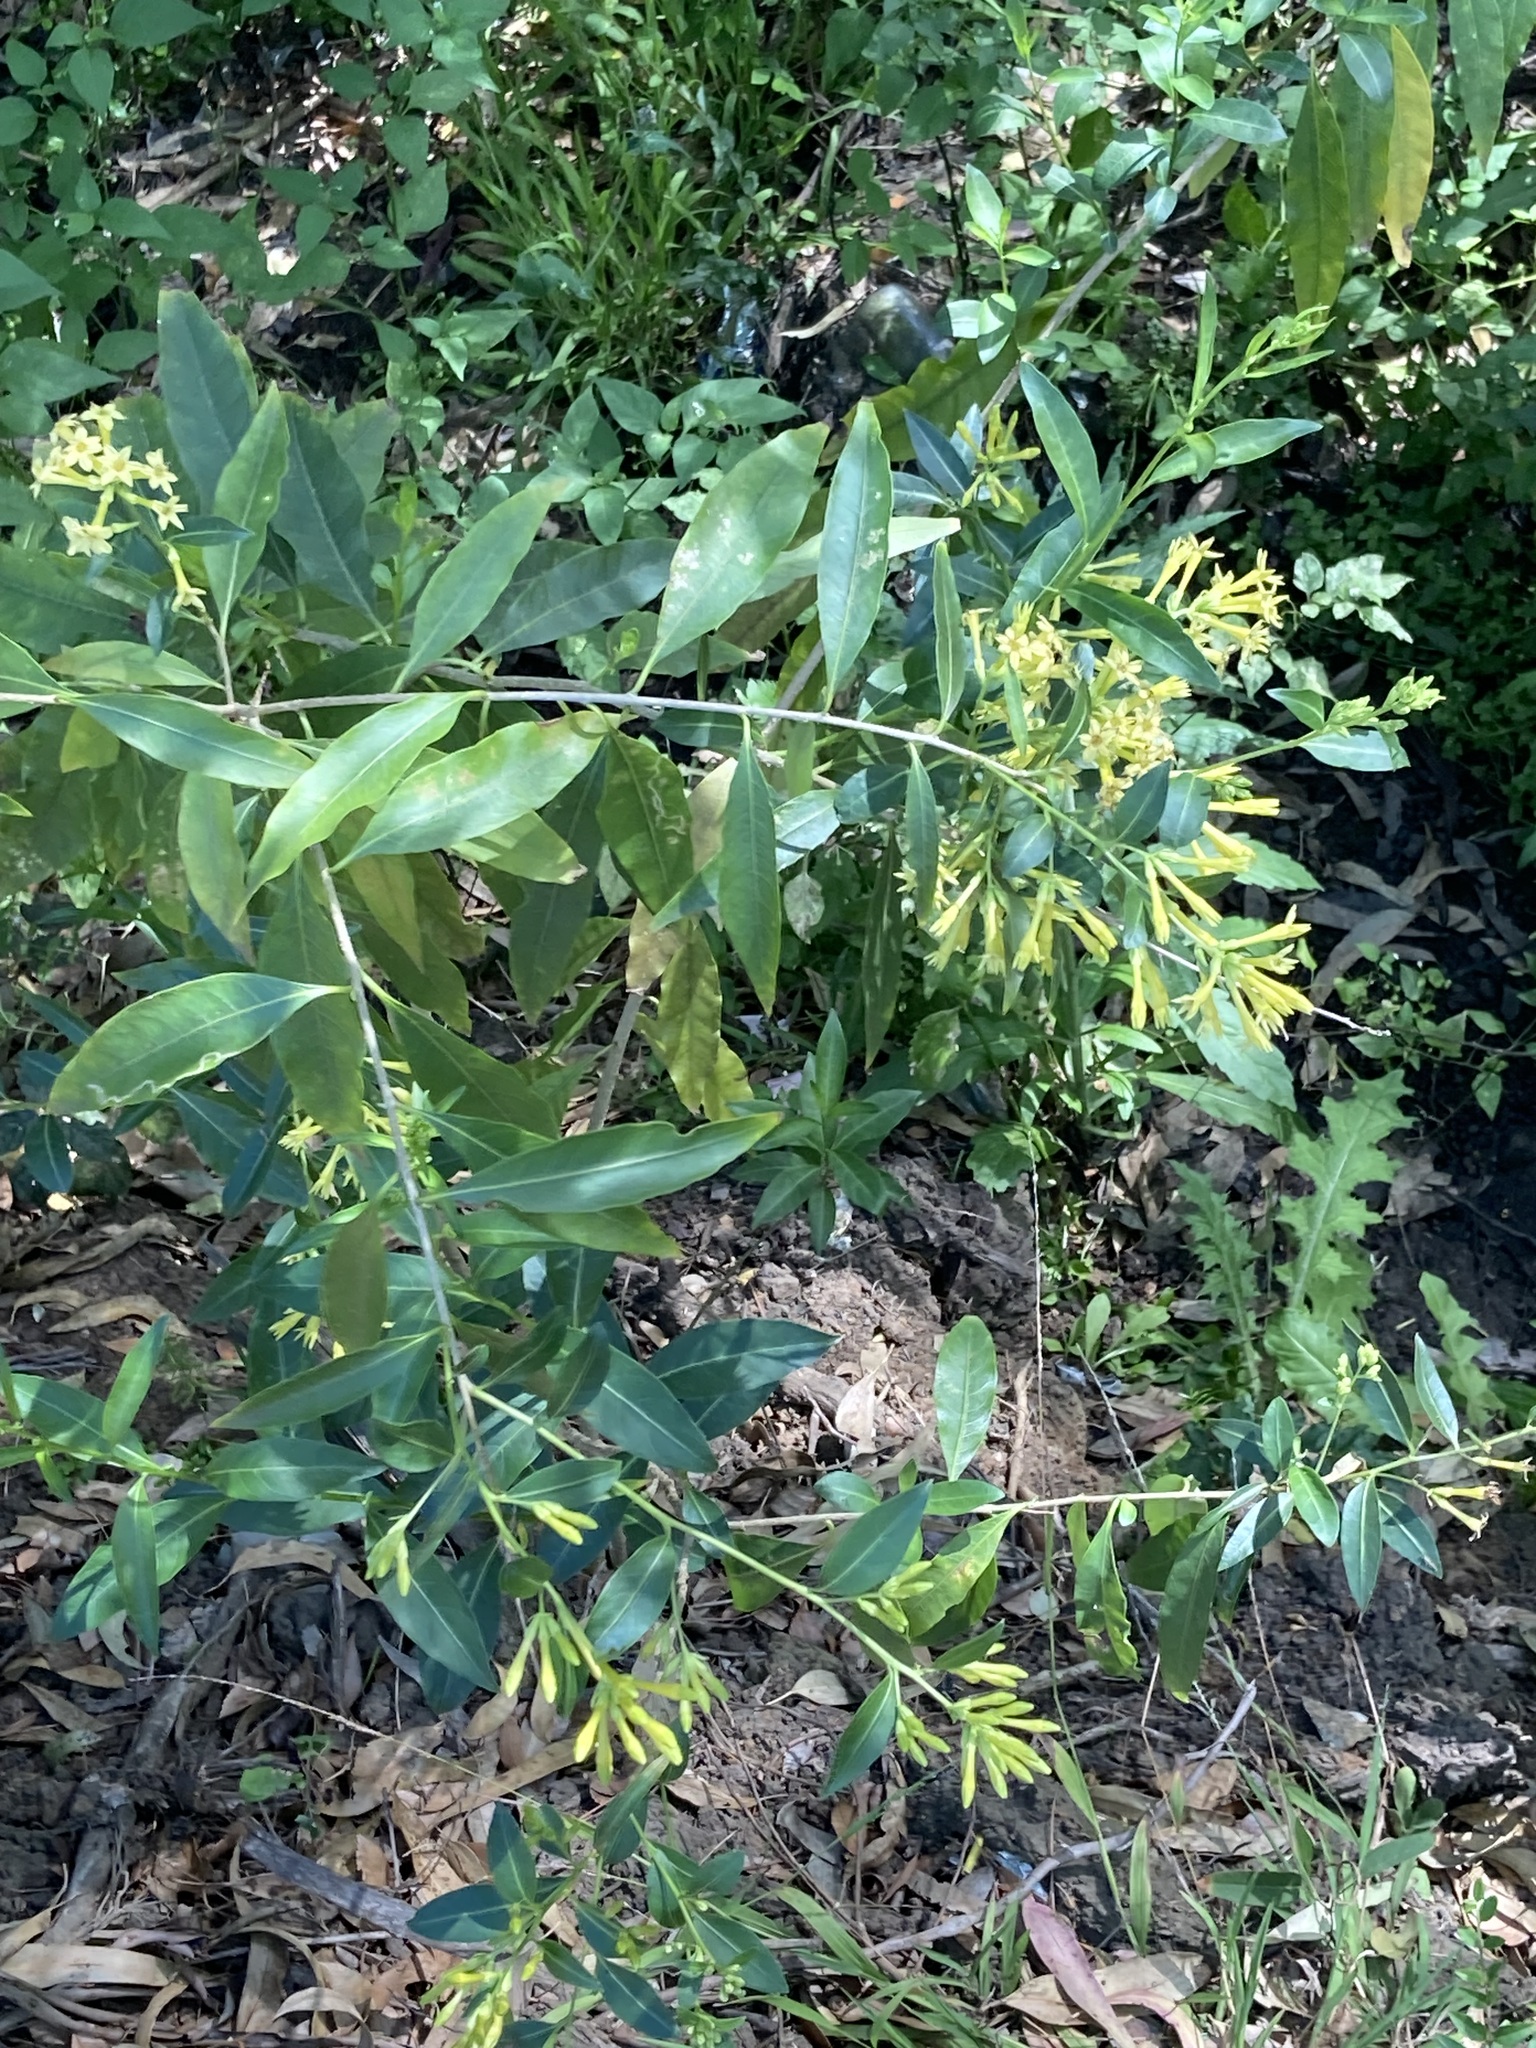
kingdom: Plantae
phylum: Tracheophyta
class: Magnoliopsida
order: Solanales
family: Solanaceae
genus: Cestrum
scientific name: Cestrum parqui
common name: Chilean cestrum
